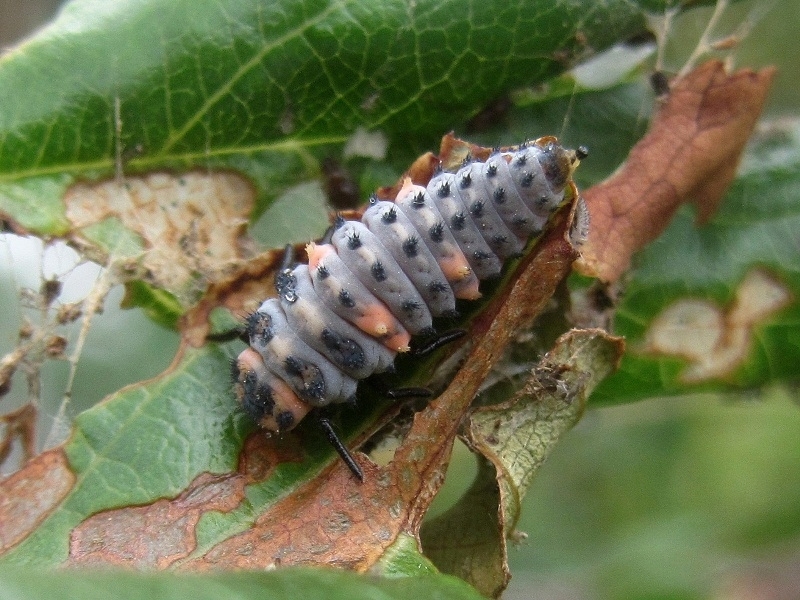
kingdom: Animalia
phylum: Arthropoda
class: Insecta
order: Coleoptera
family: Coccinellidae
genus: Coccinella
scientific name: Coccinella septempunctata
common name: Sevenspotted lady beetle
